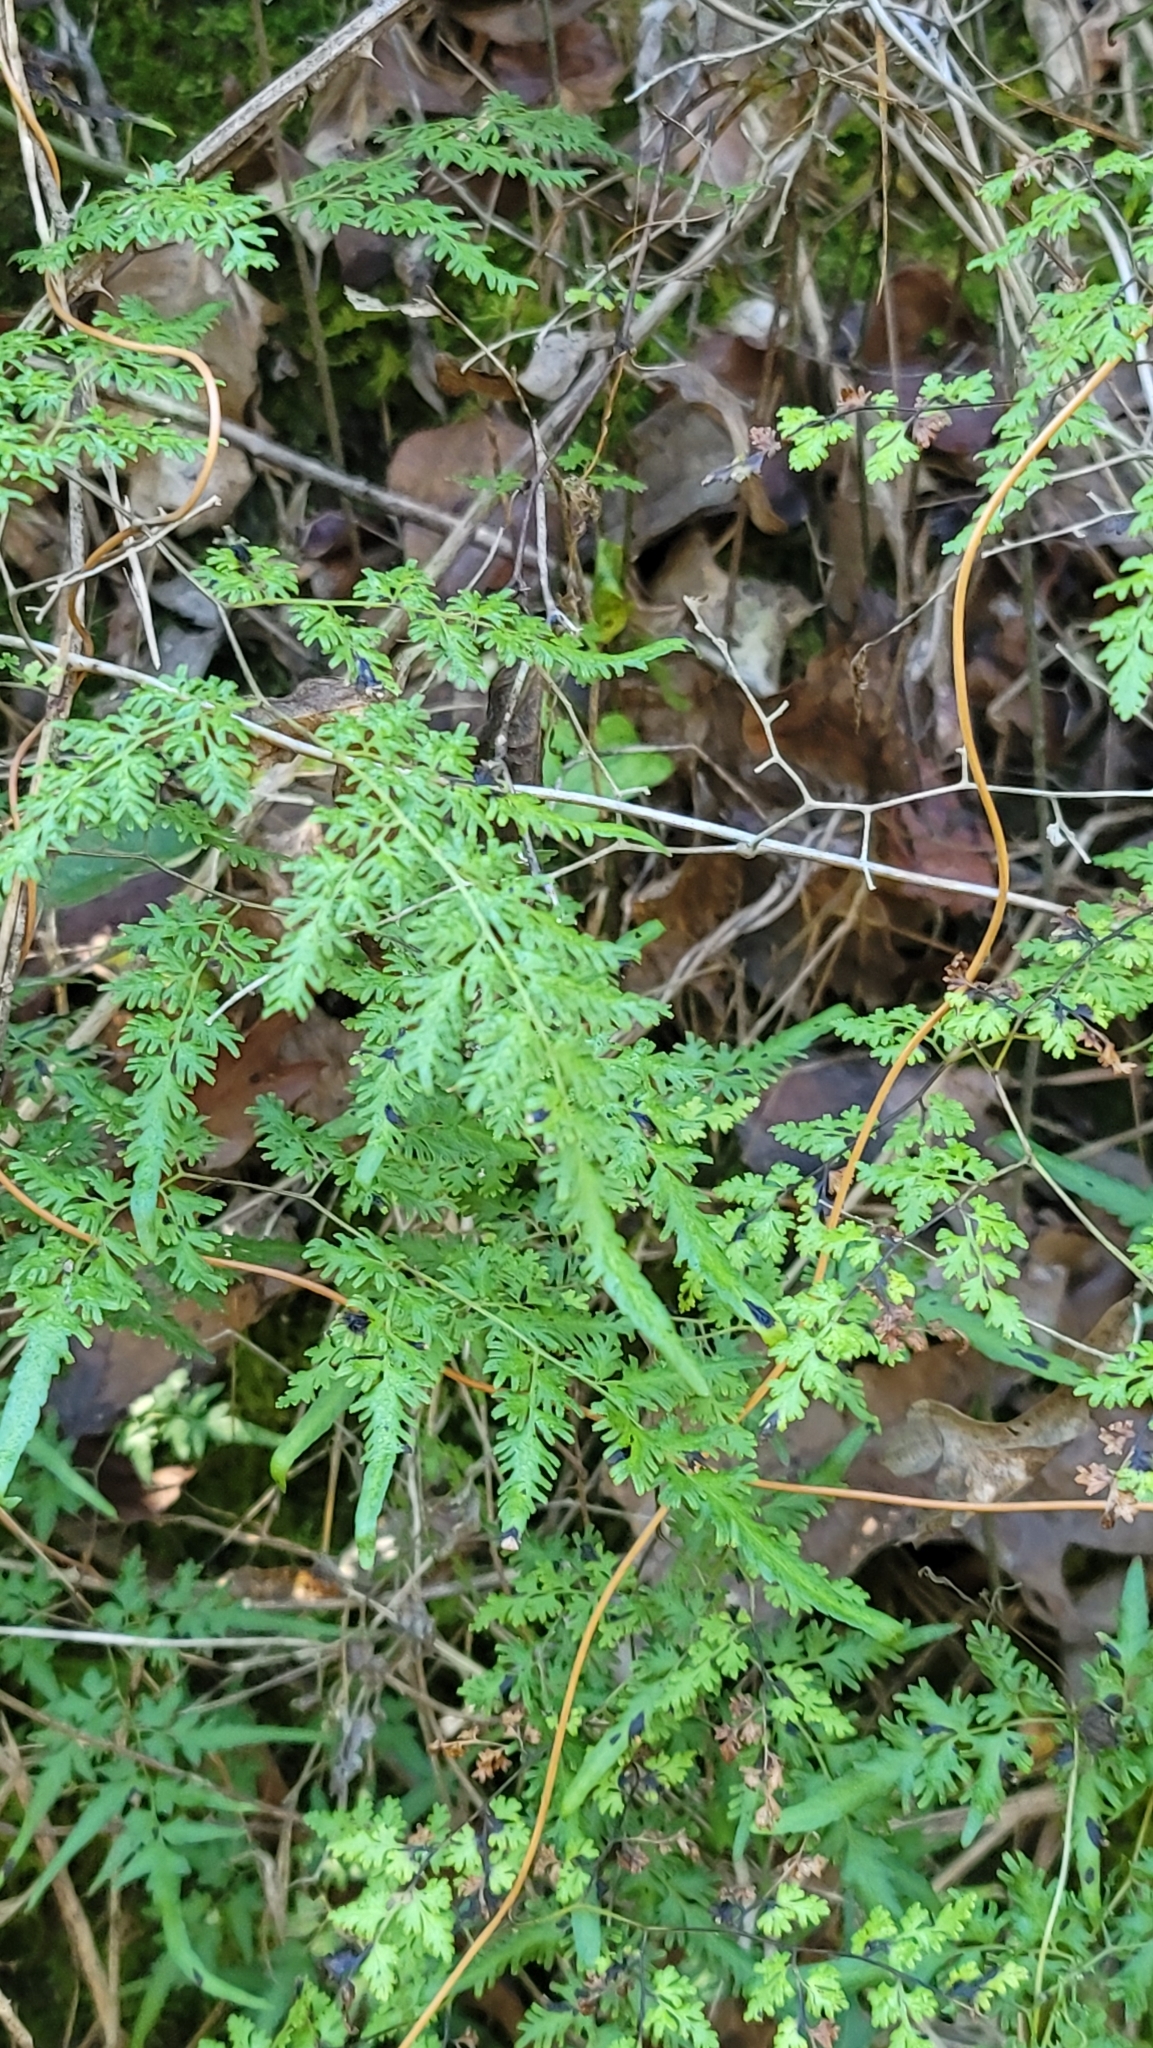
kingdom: Plantae
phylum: Tracheophyta
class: Polypodiopsida
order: Schizaeales
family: Lygodiaceae
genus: Lygodium
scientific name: Lygodium japonicum
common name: Japanese climbing fern
